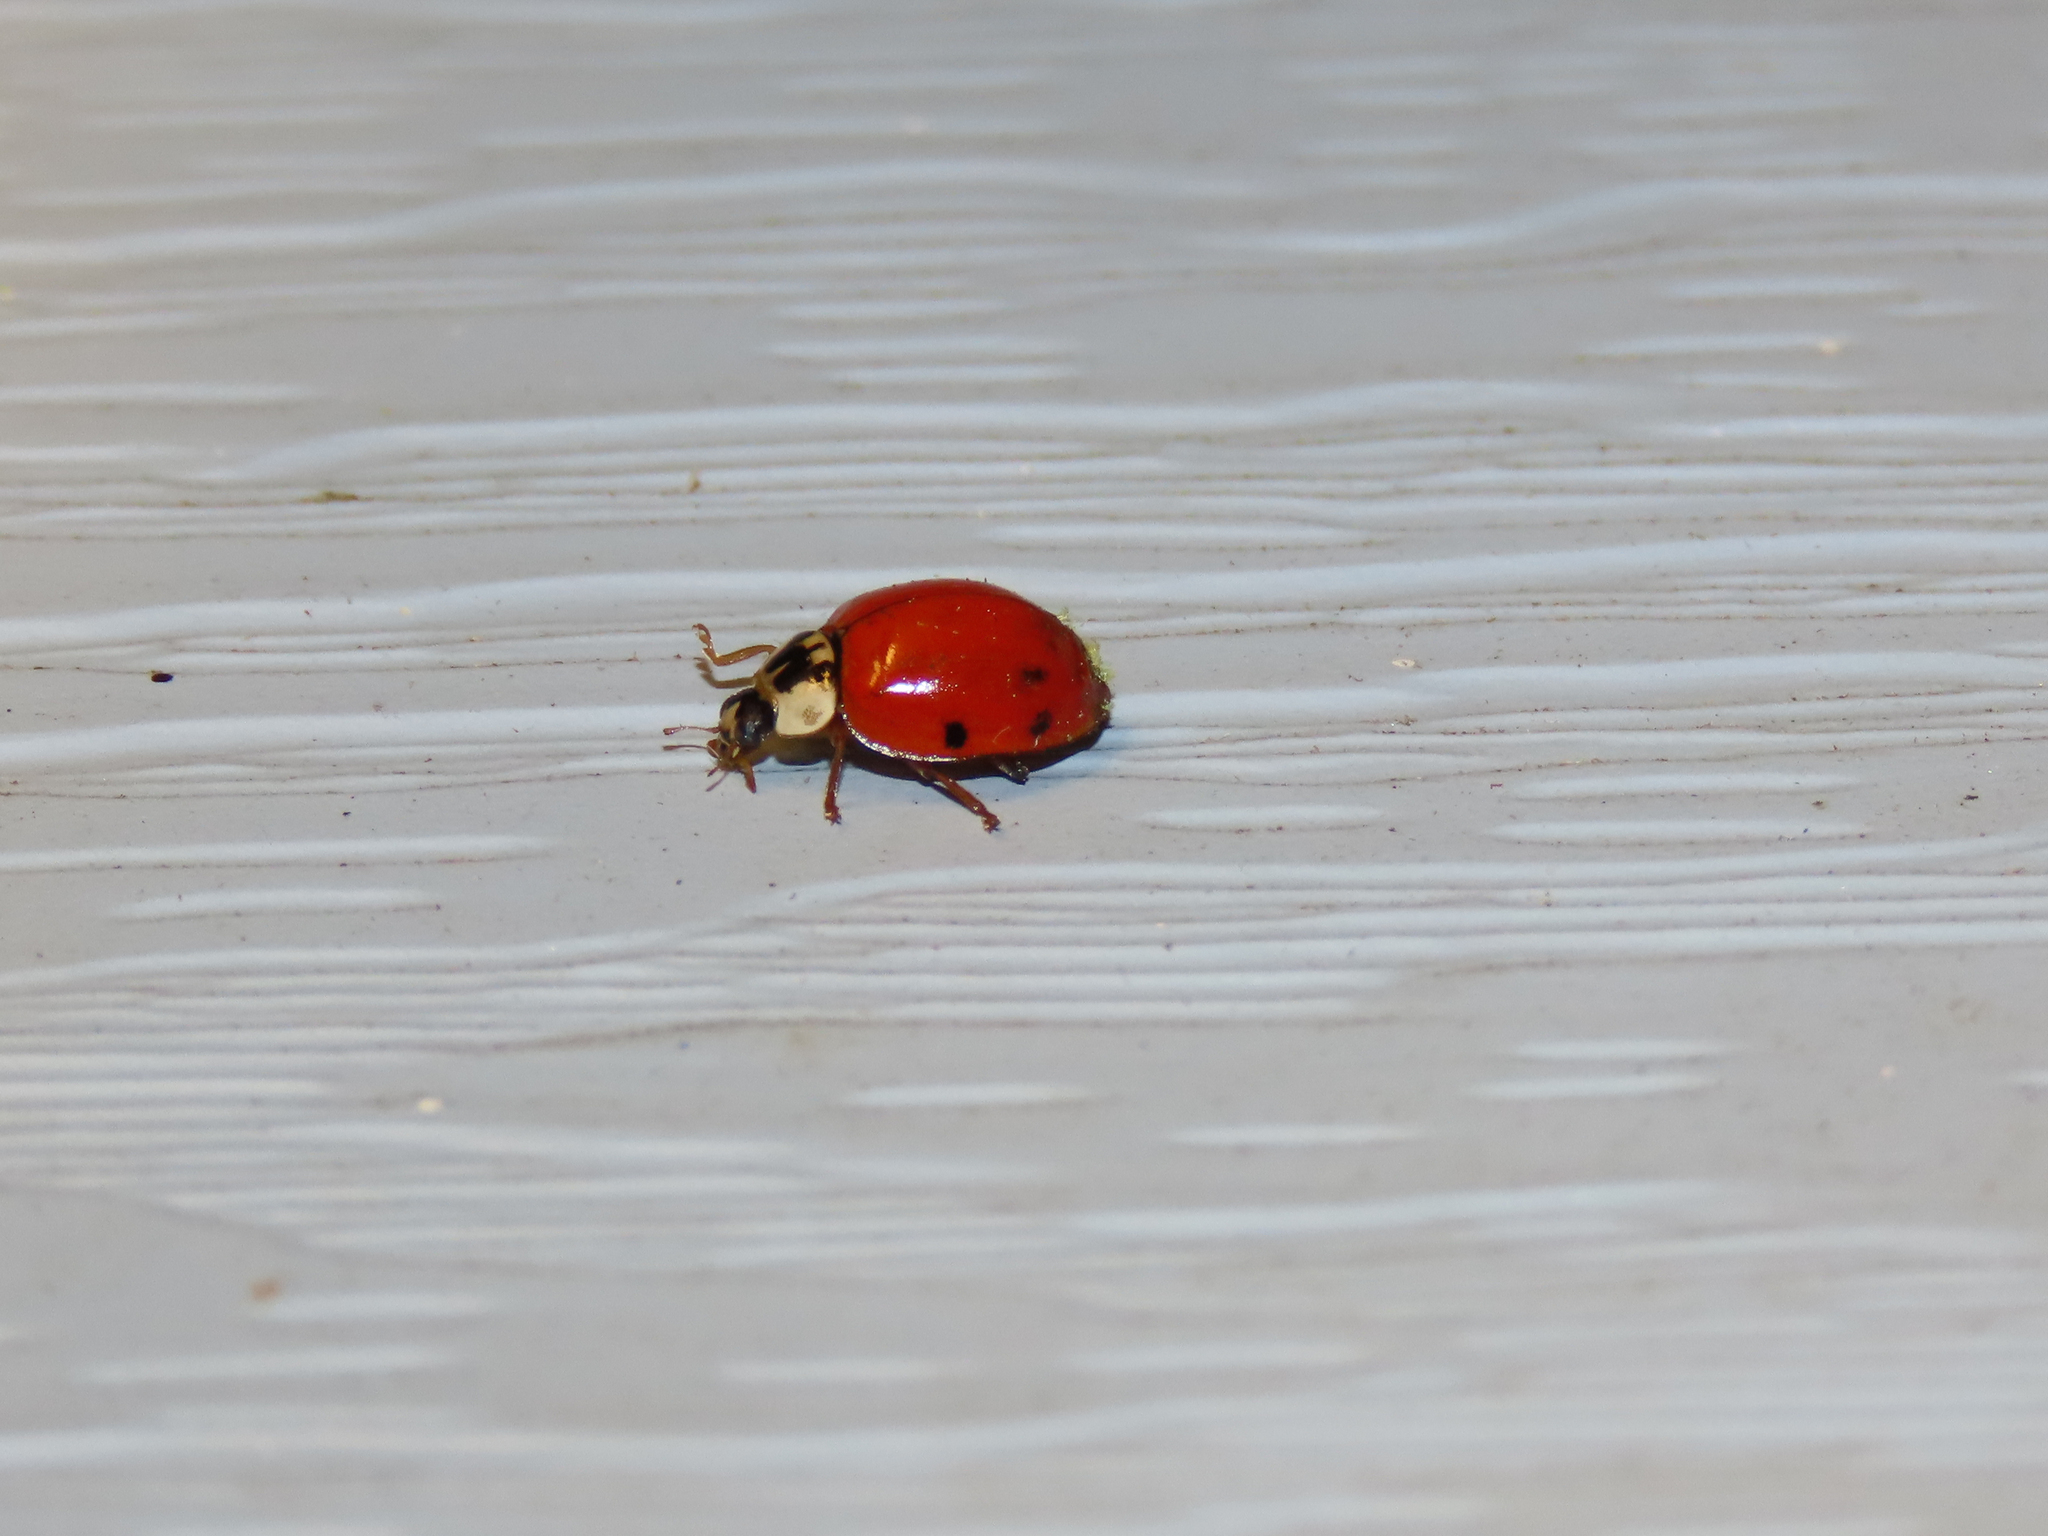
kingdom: Animalia
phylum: Arthropoda
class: Insecta
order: Coleoptera
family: Coccinellidae
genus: Harmonia
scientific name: Harmonia axyridis
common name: Harlequin ladybird
